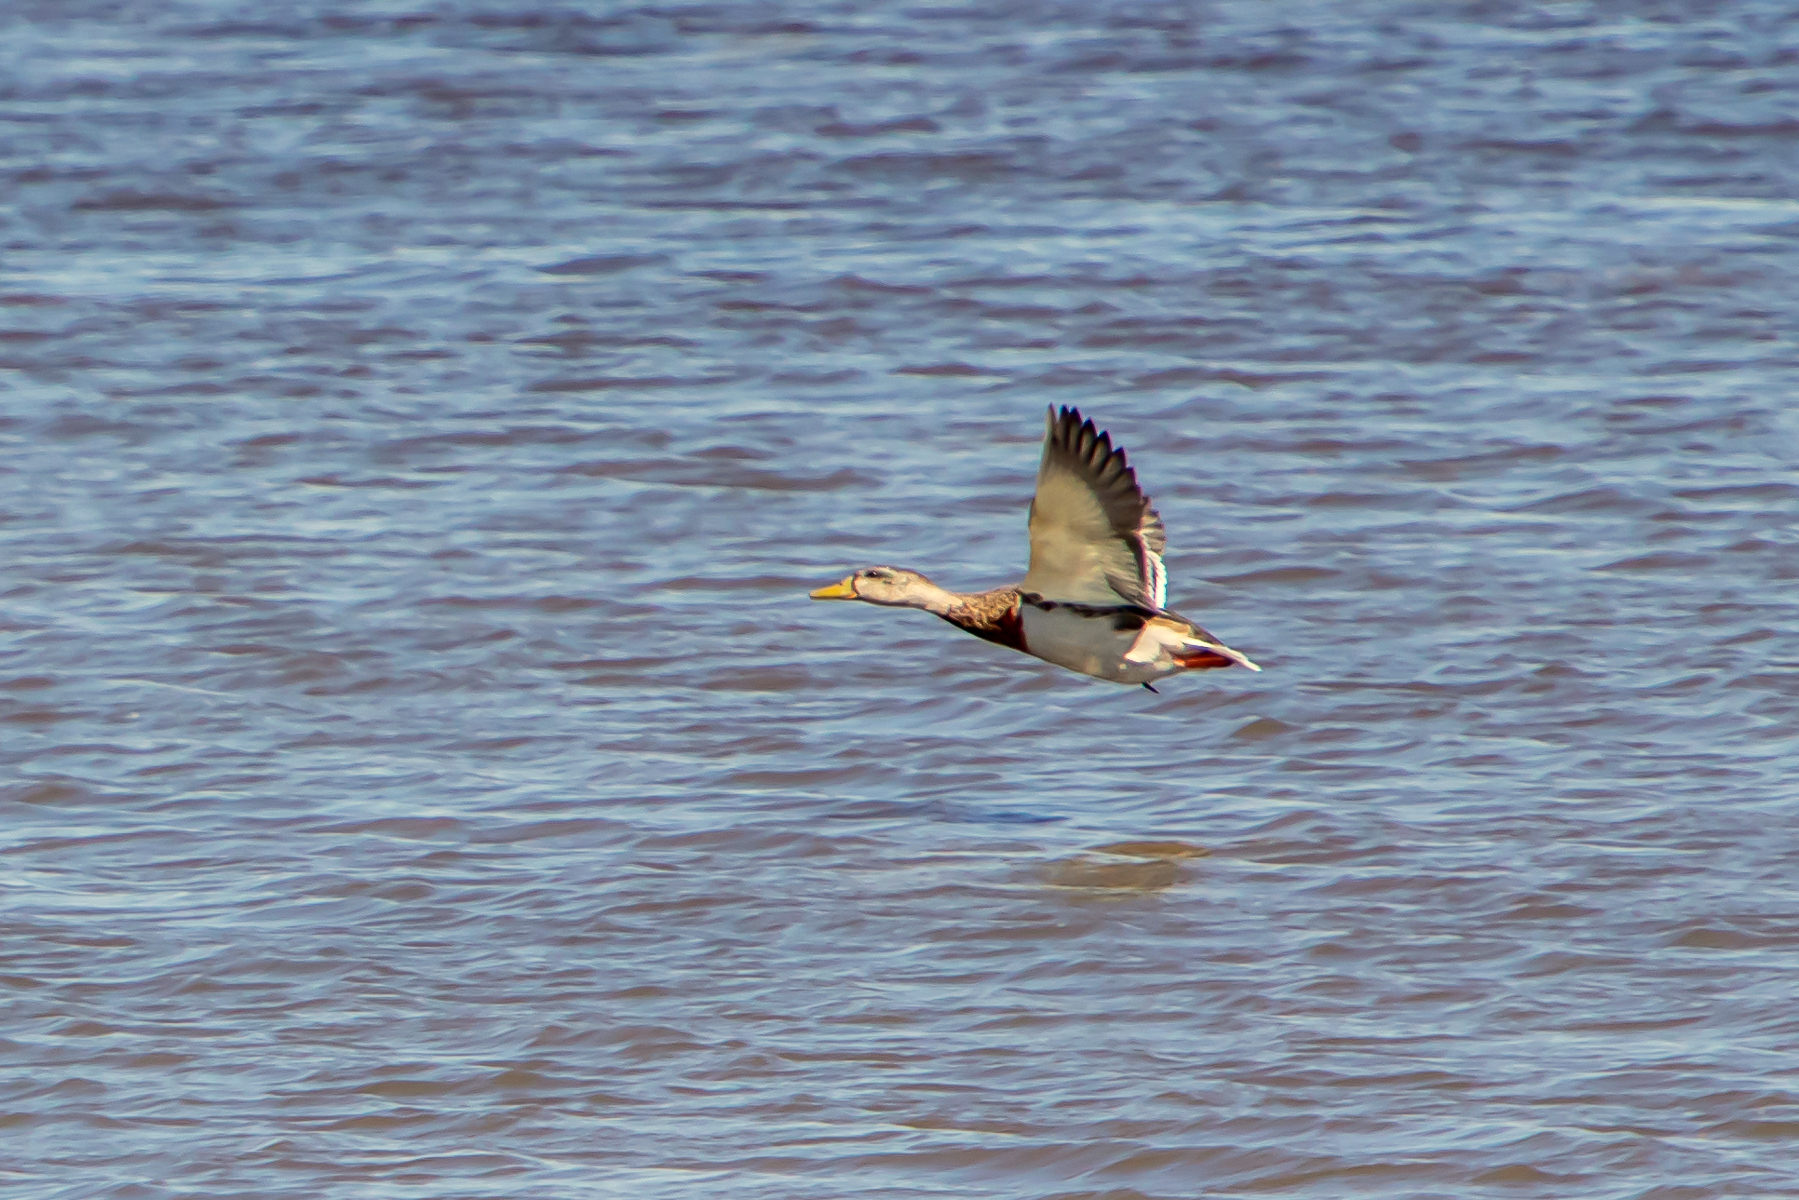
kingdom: Animalia
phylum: Chordata
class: Aves
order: Anseriformes
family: Anatidae
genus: Anas
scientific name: Anas platyrhynchos
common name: Mallard
